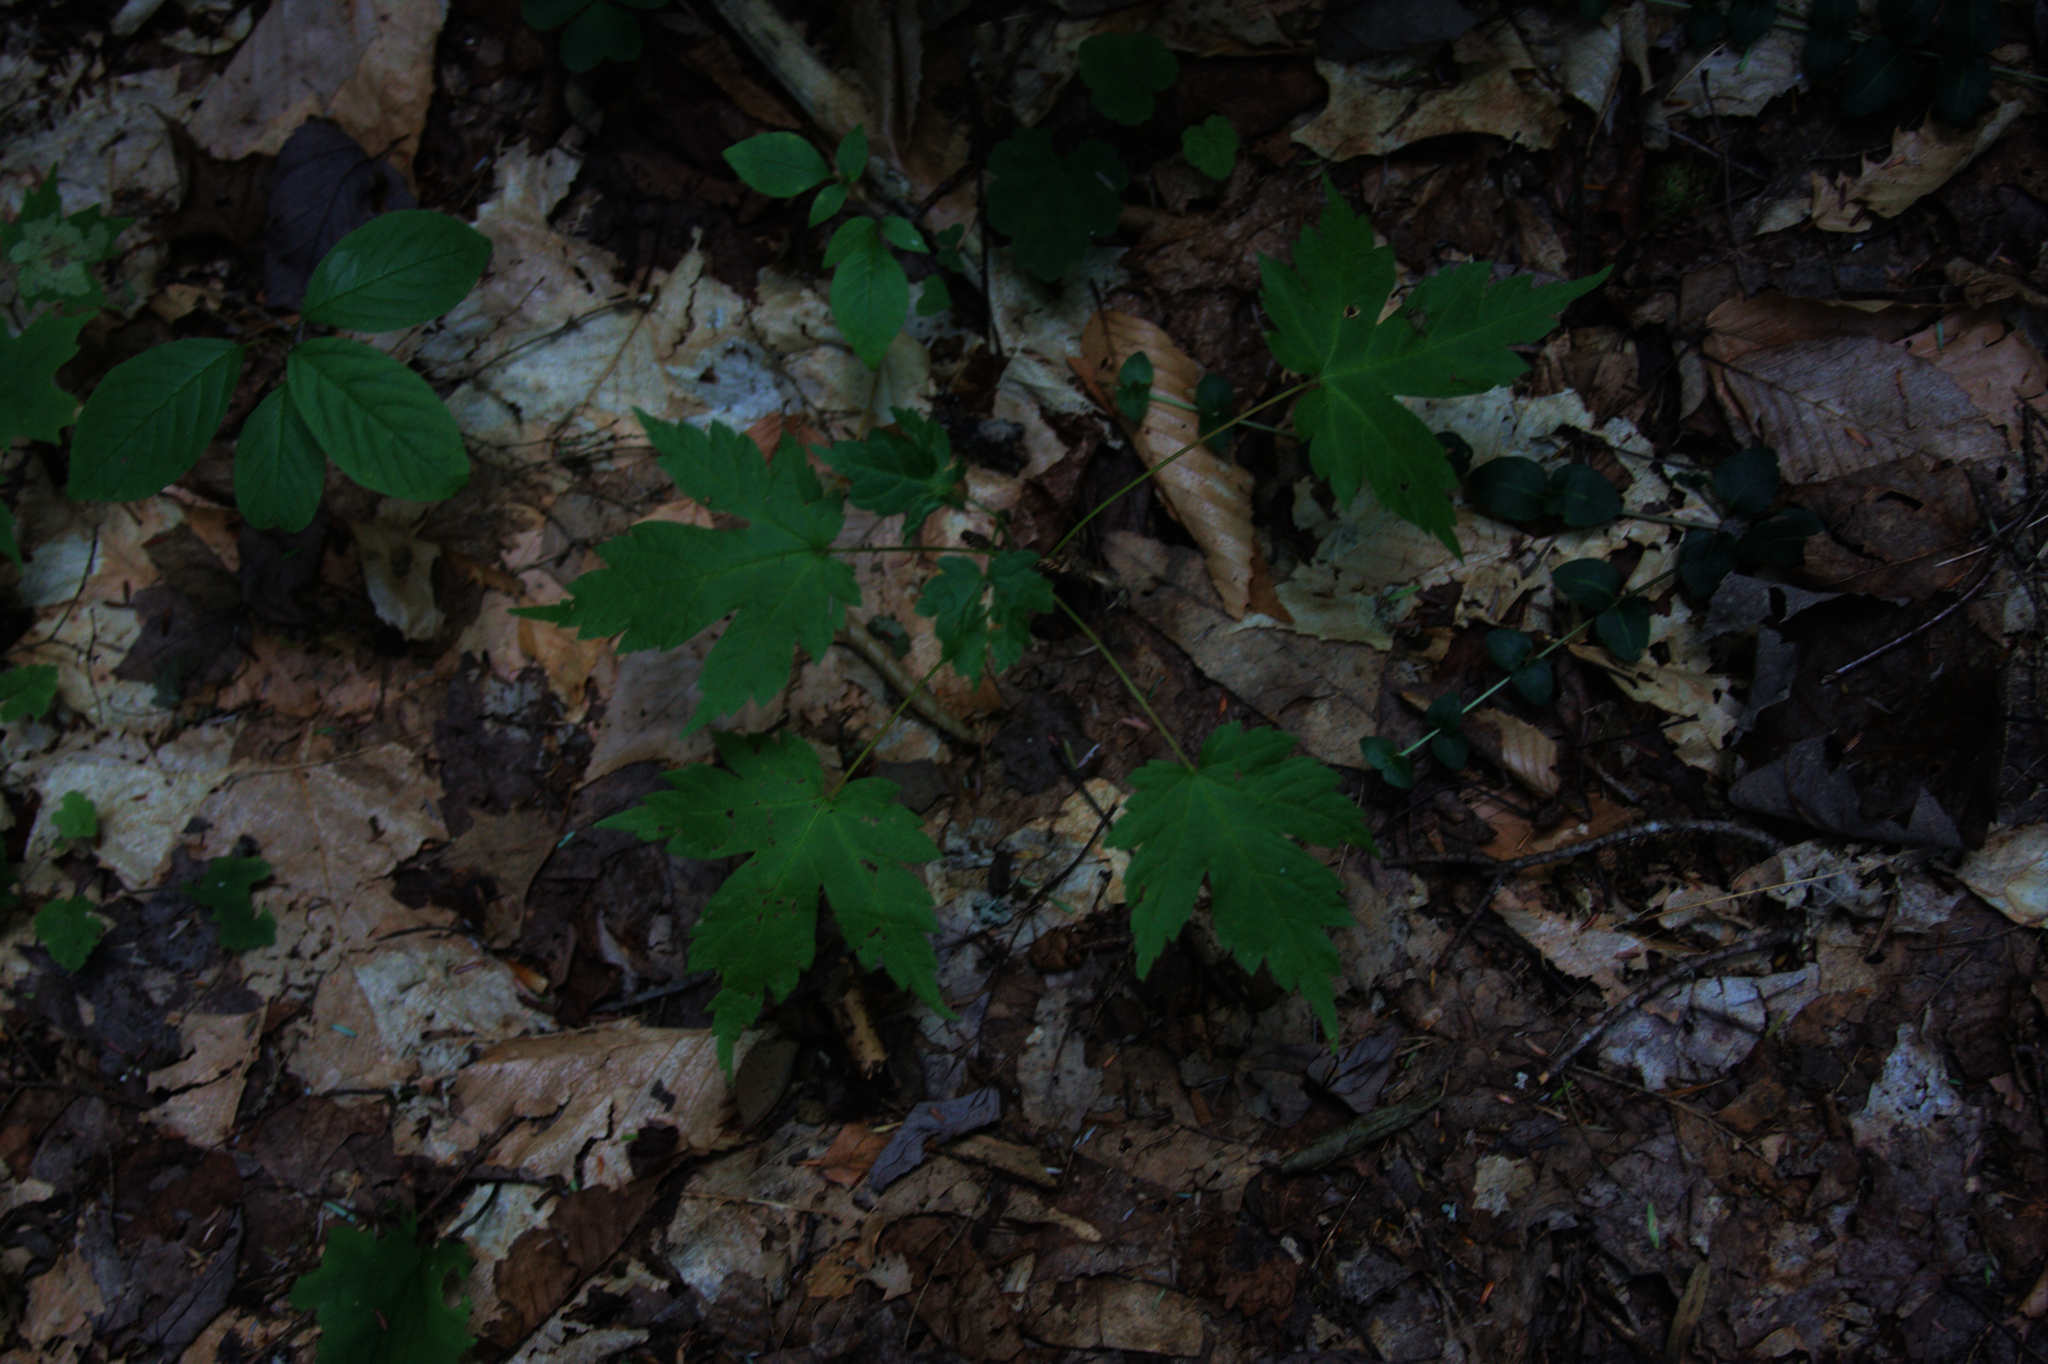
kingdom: Plantae
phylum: Tracheophyta
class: Magnoliopsida
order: Gentianales
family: Rubiaceae
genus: Mitchella
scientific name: Mitchella repens
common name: Partridge-berry
